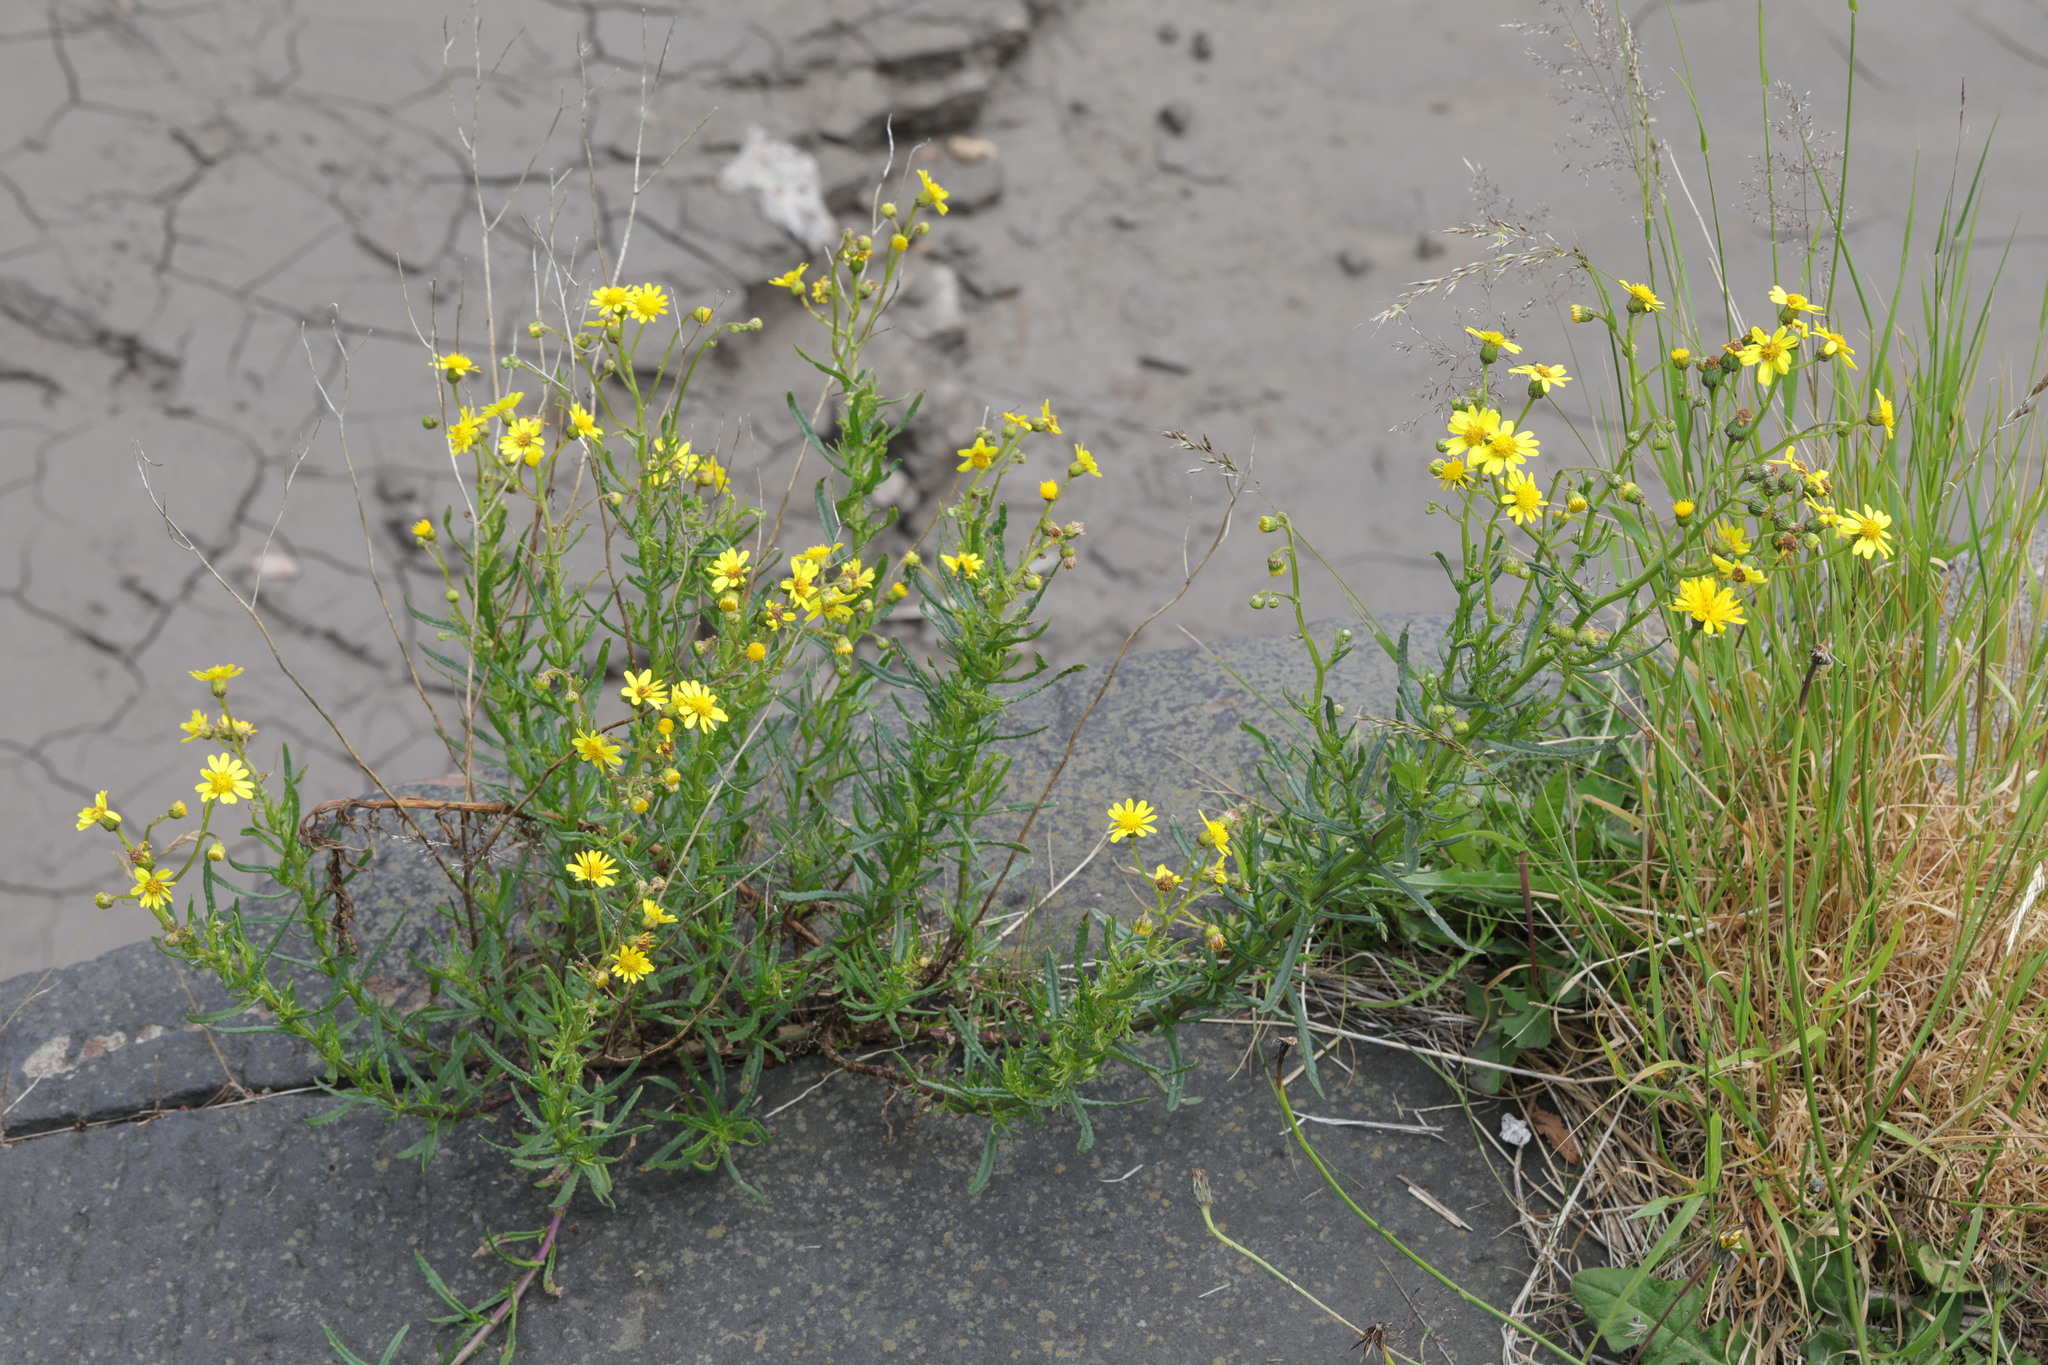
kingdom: Plantae
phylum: Tracheophyta
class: Magnoliopsida
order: Asterales
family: Asteraceae
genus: Senecio
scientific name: Senecio inaequidens
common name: Narrow-leaved ragwort
